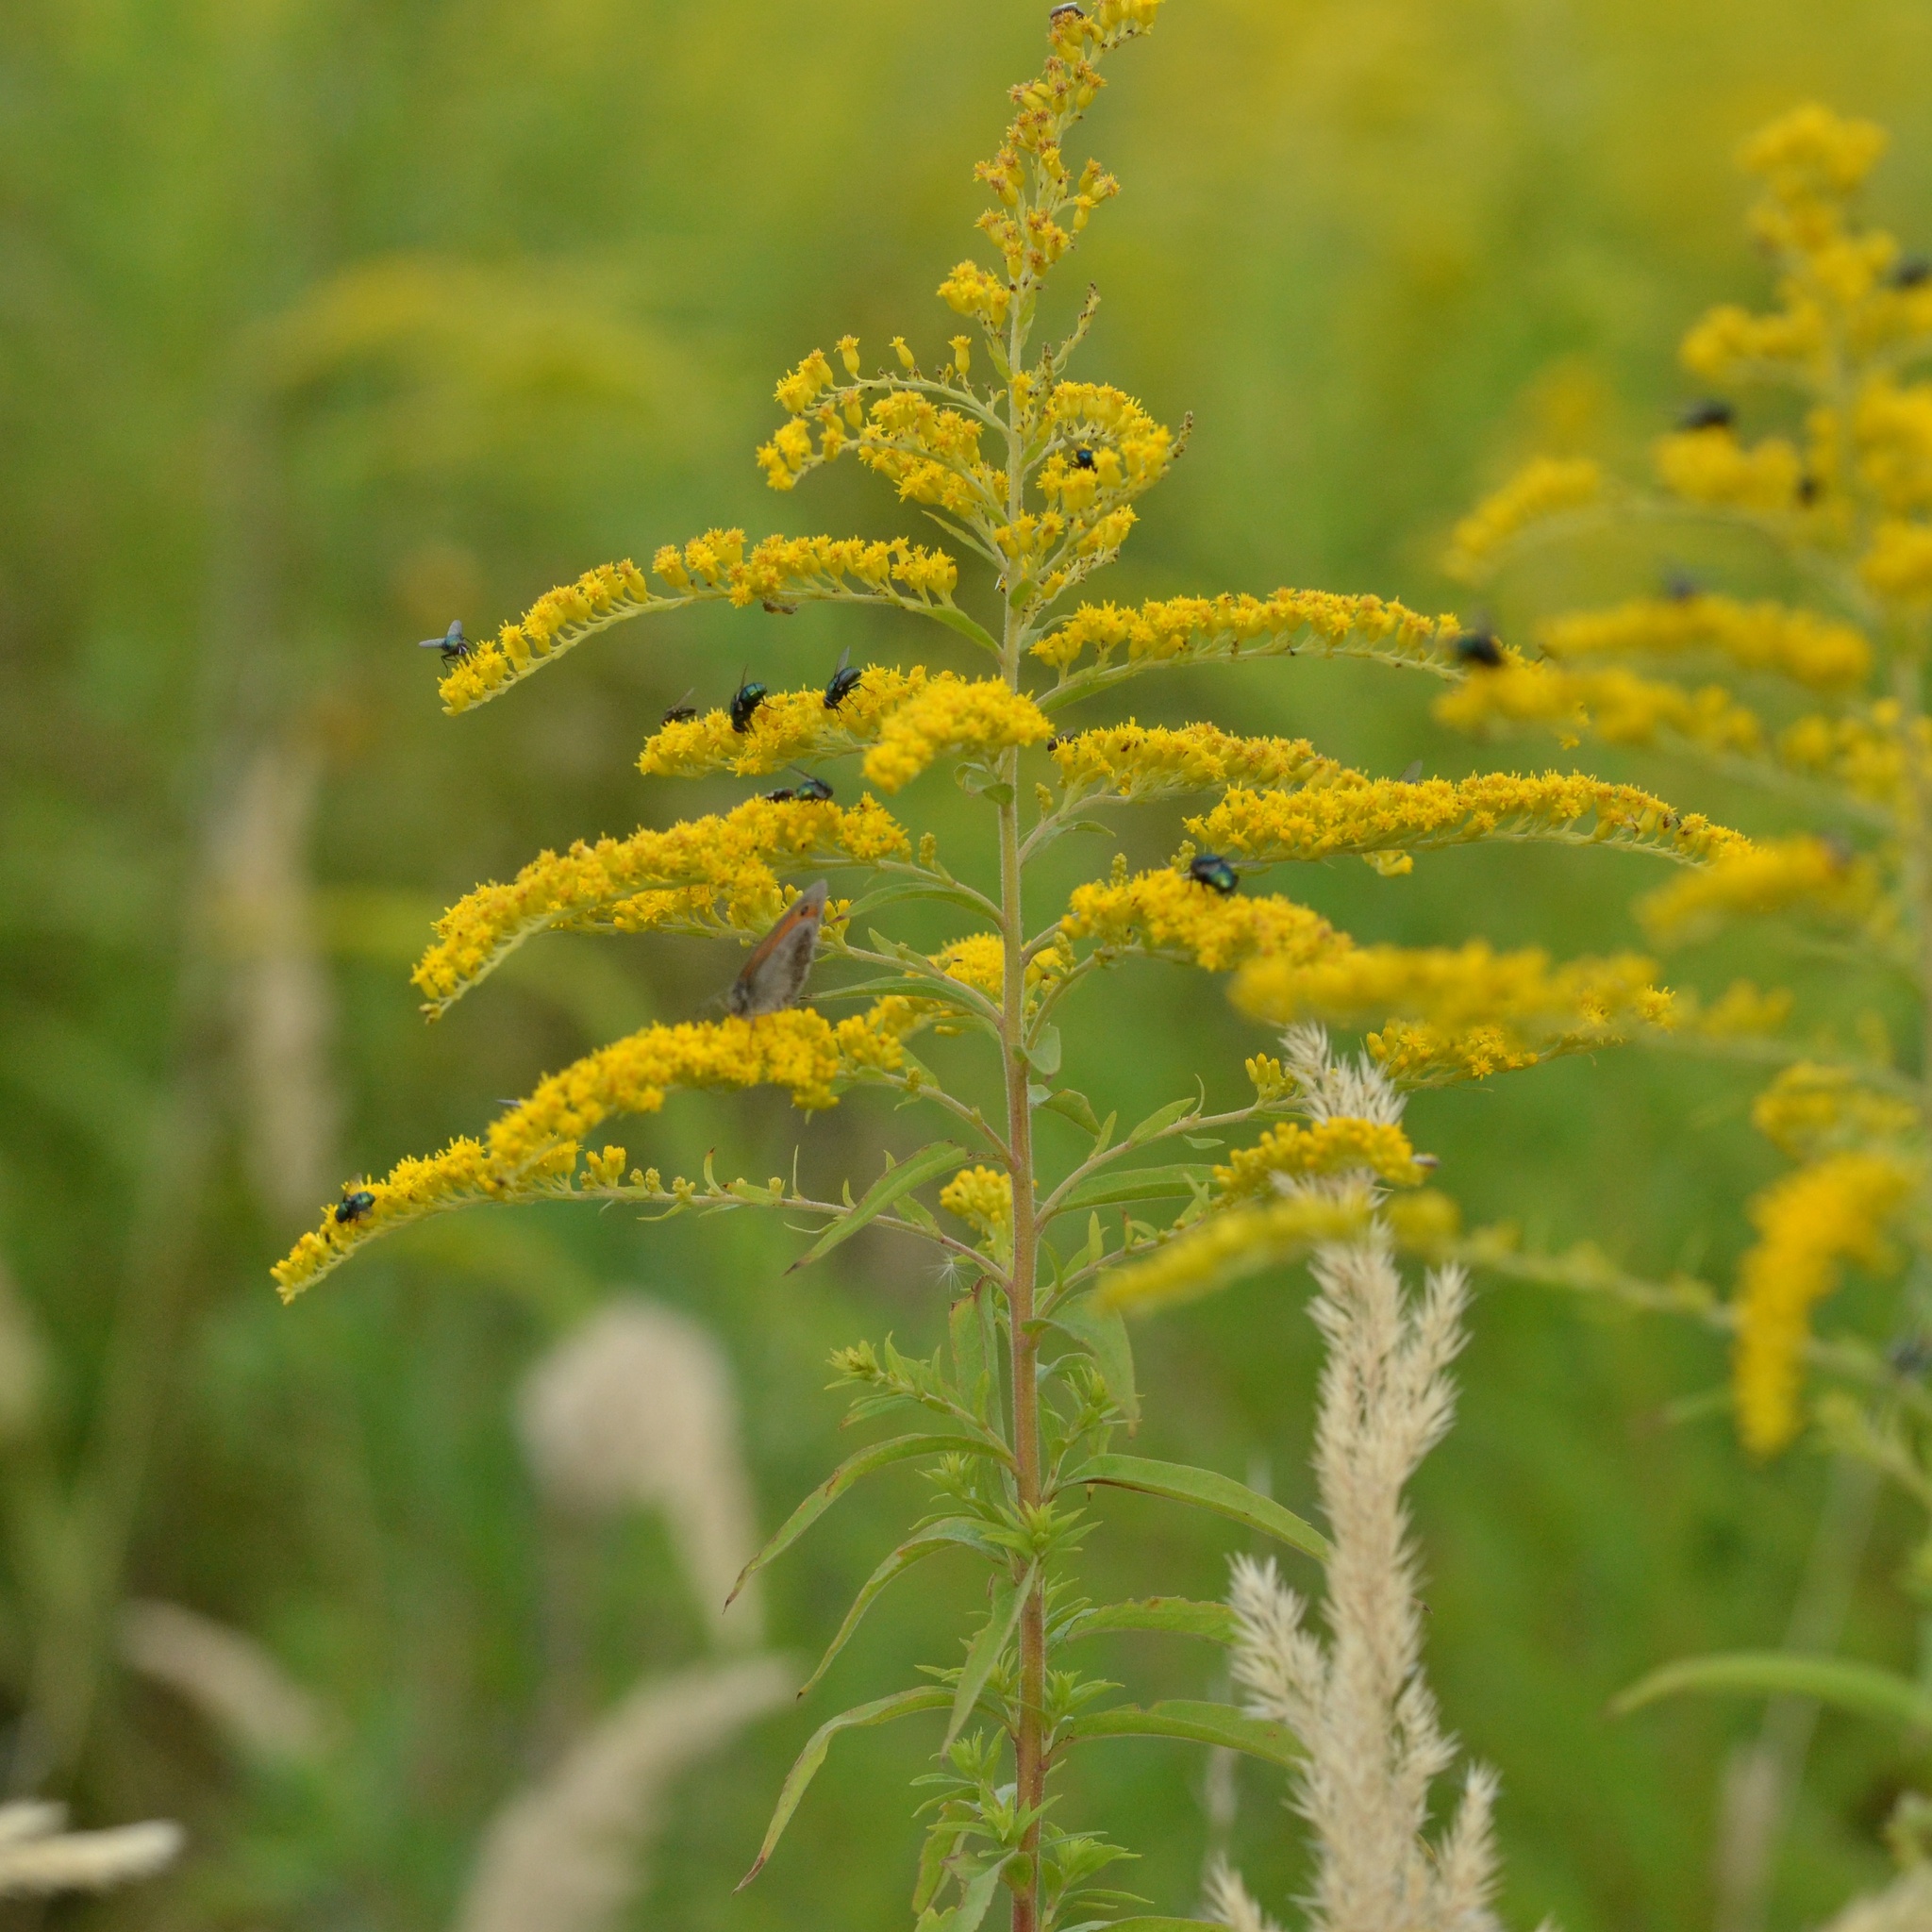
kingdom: Plantae
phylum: Tracheophyta
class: Magnoliopsida
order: Asterales
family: Asteraceae
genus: Solidago
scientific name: Solidago canadensis
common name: Canada goldenrod
